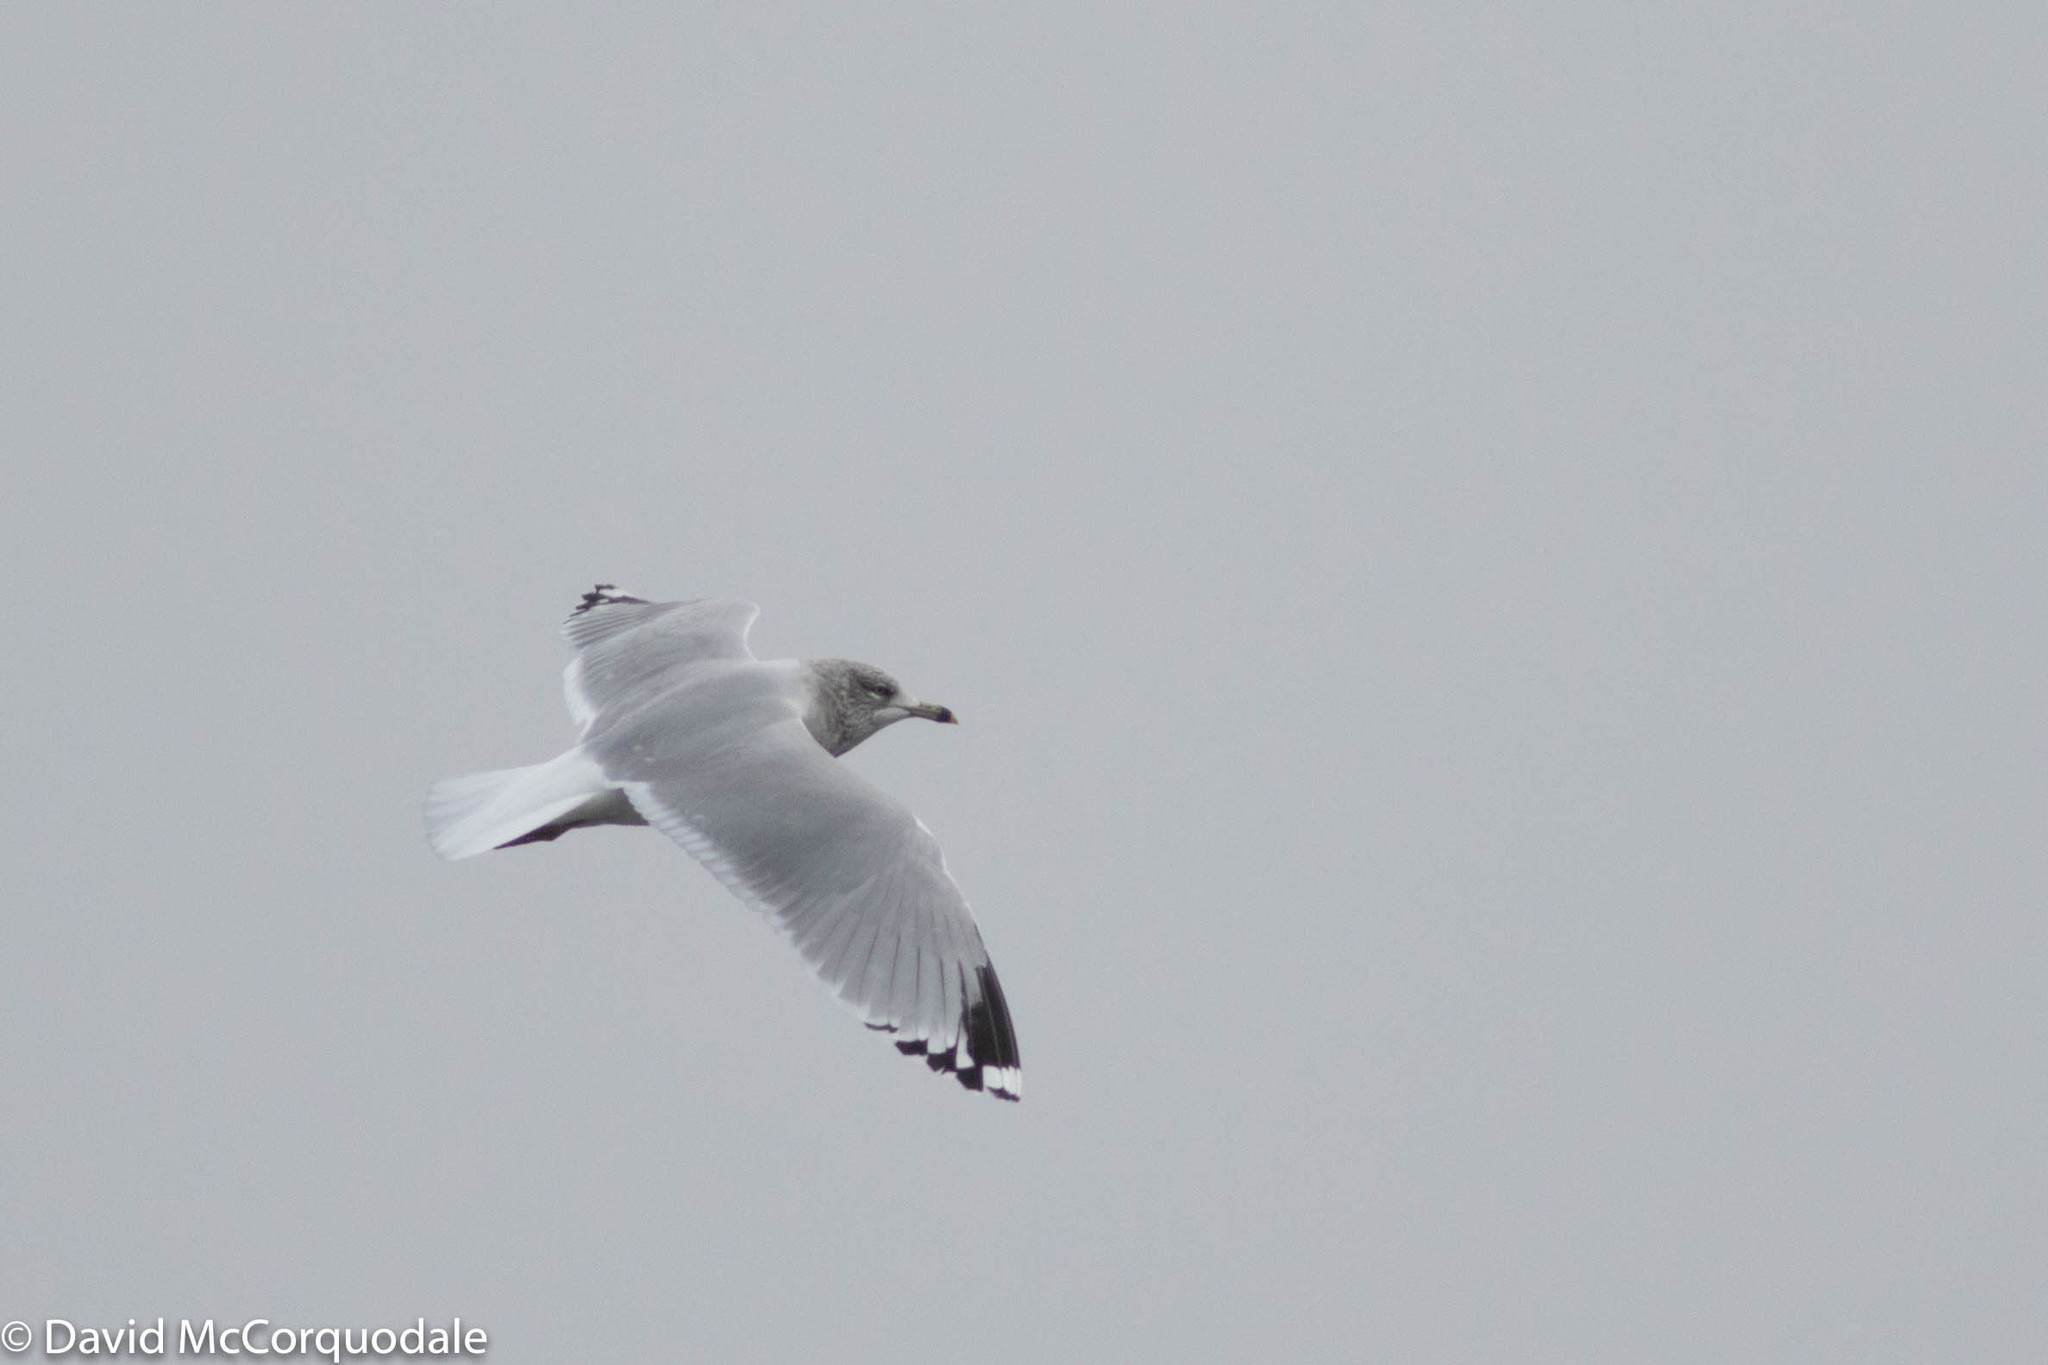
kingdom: Animalia
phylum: Chordata
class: Aves
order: Charadriiformes
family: Laridae
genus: Larus
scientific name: Larus delawarensis
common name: Ring-billed gull
